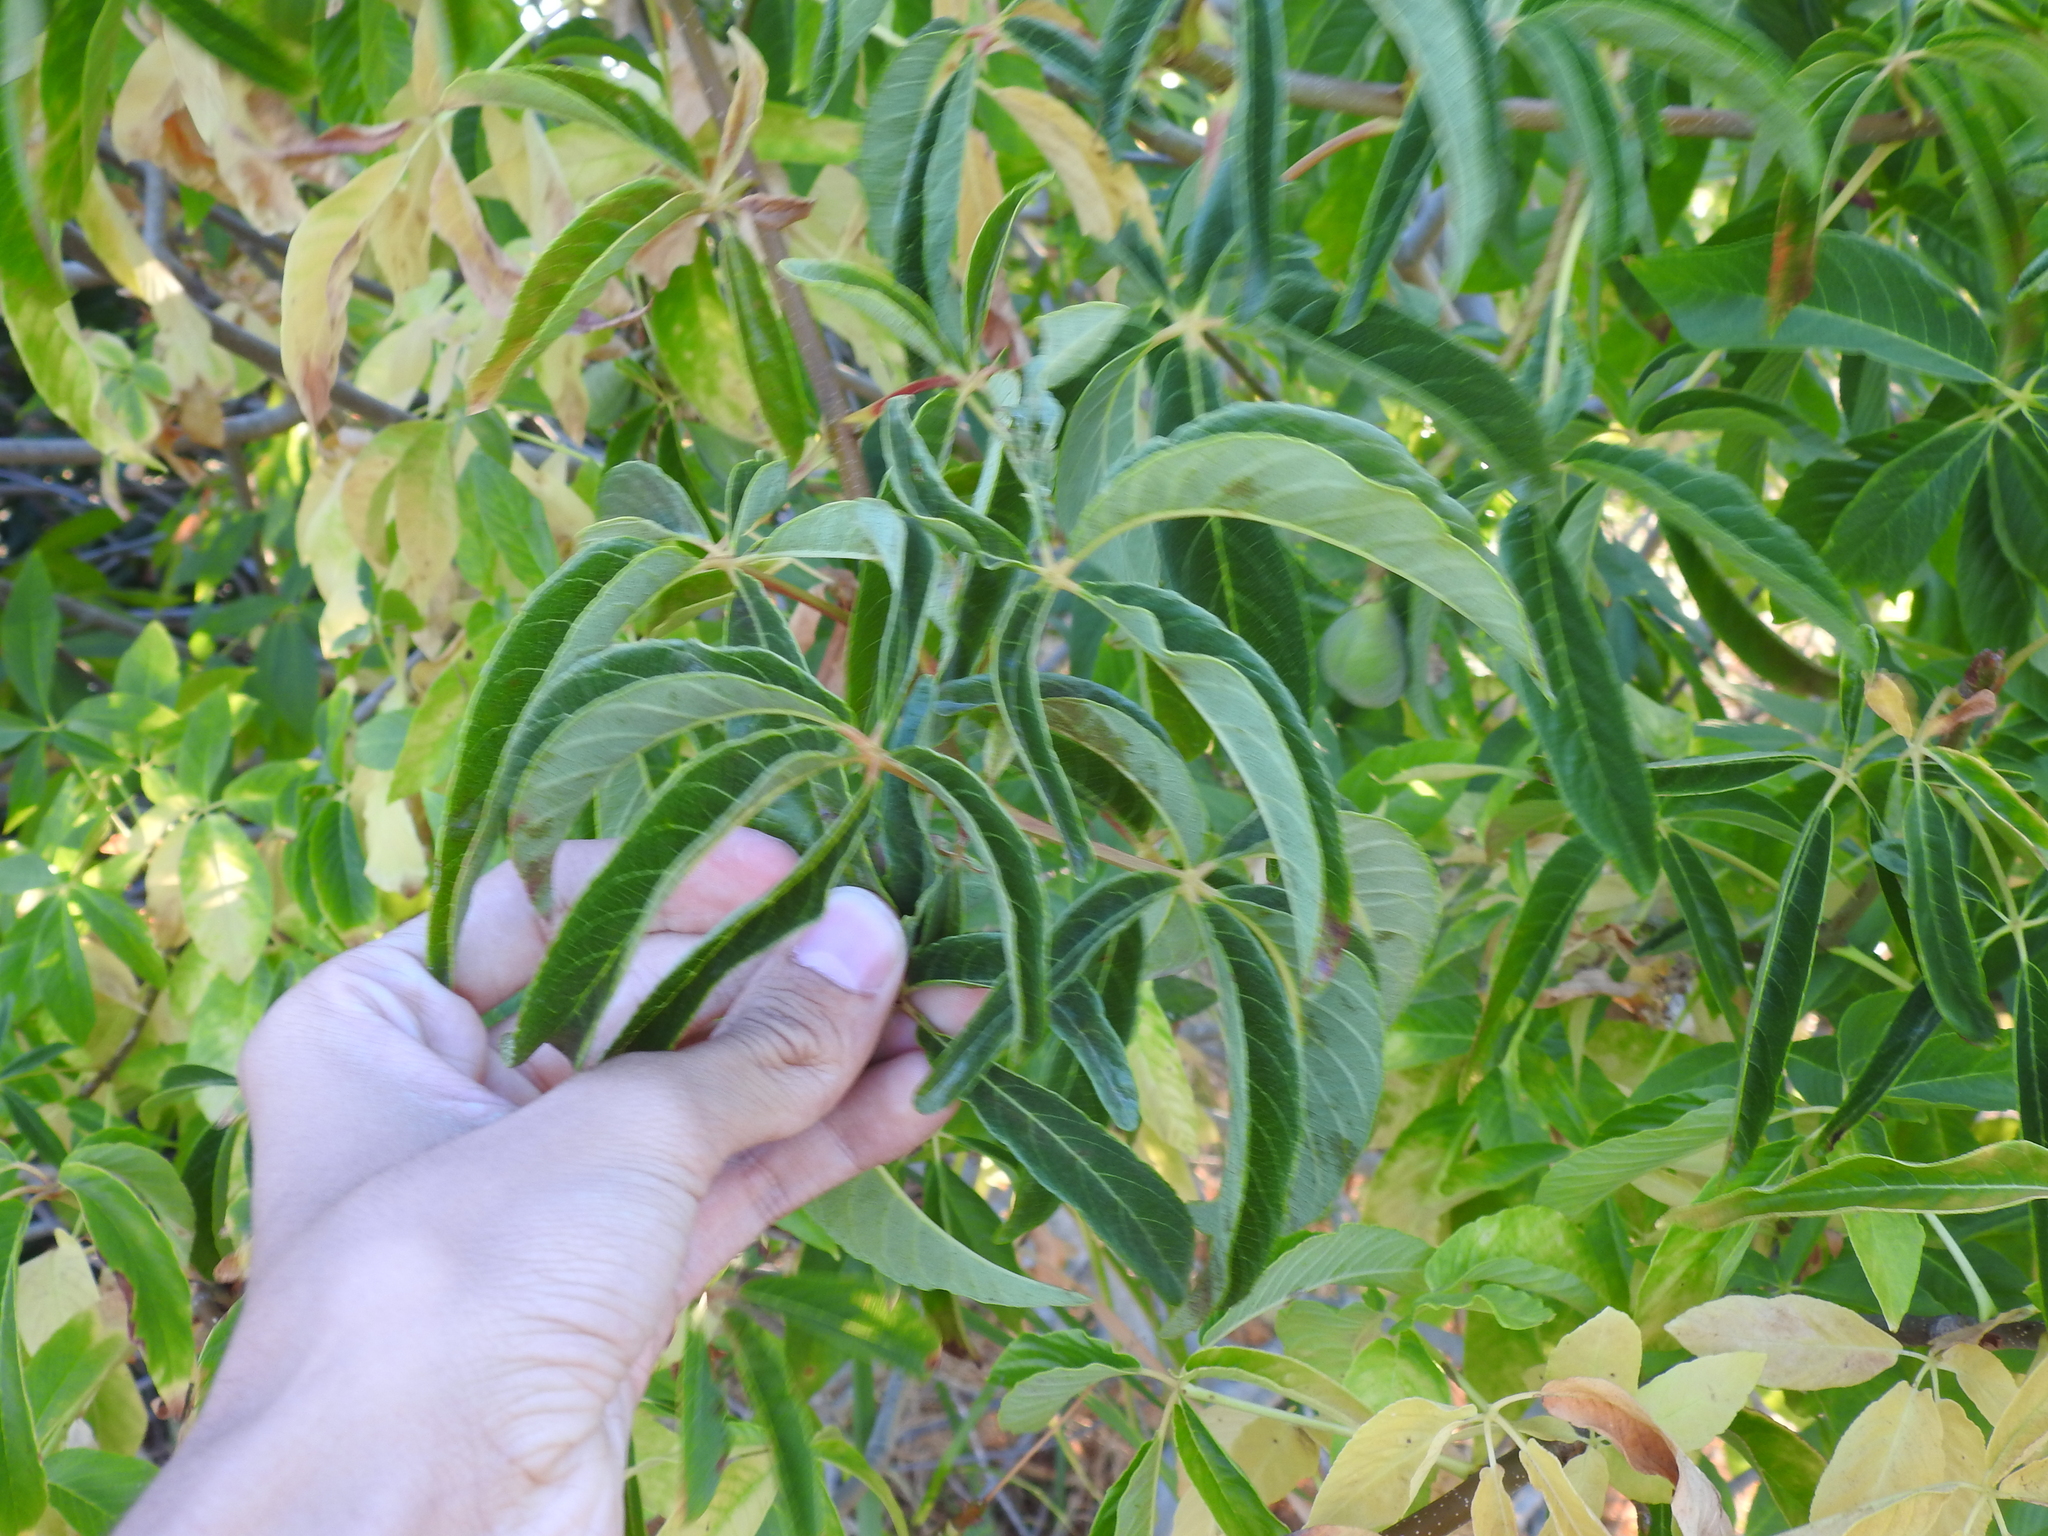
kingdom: Plantae
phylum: Tracheophyta
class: Magnoliopsida
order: Sapindales
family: Sapindaceae
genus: Aesculus
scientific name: Aesculus californica
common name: California buckeye
